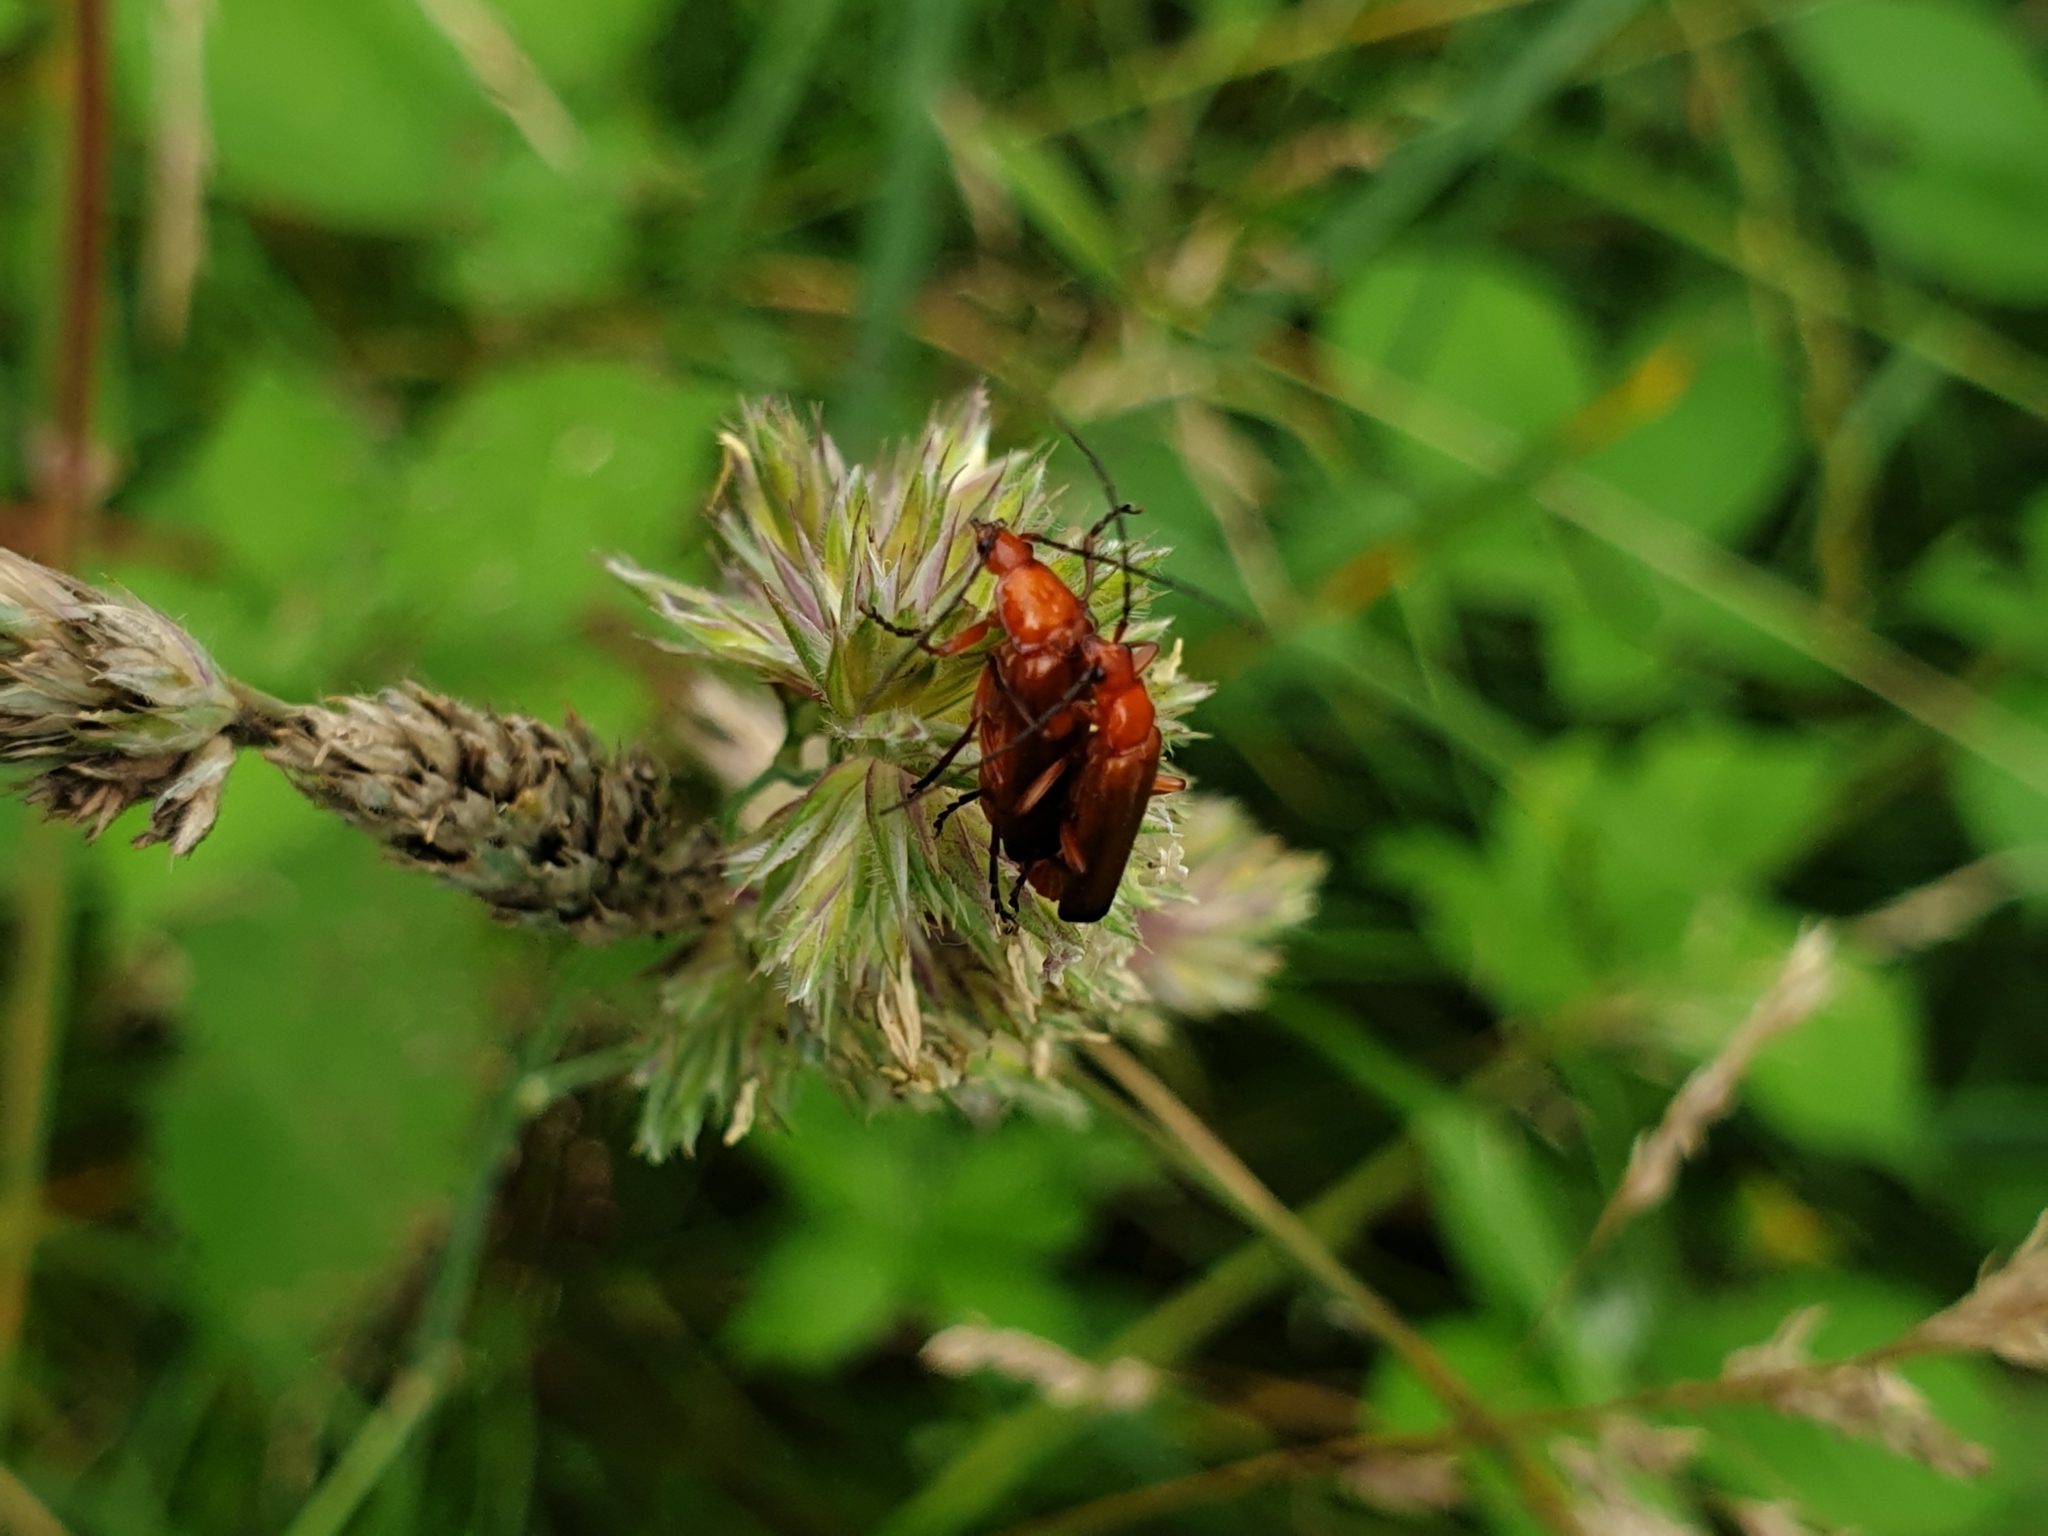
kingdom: Animalia
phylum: Arthropoda
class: Insecta
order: Coleoptera
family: Cantharidae
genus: Rhagonycha
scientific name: Rhagonycha fulva
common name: Common red soldier beetle
